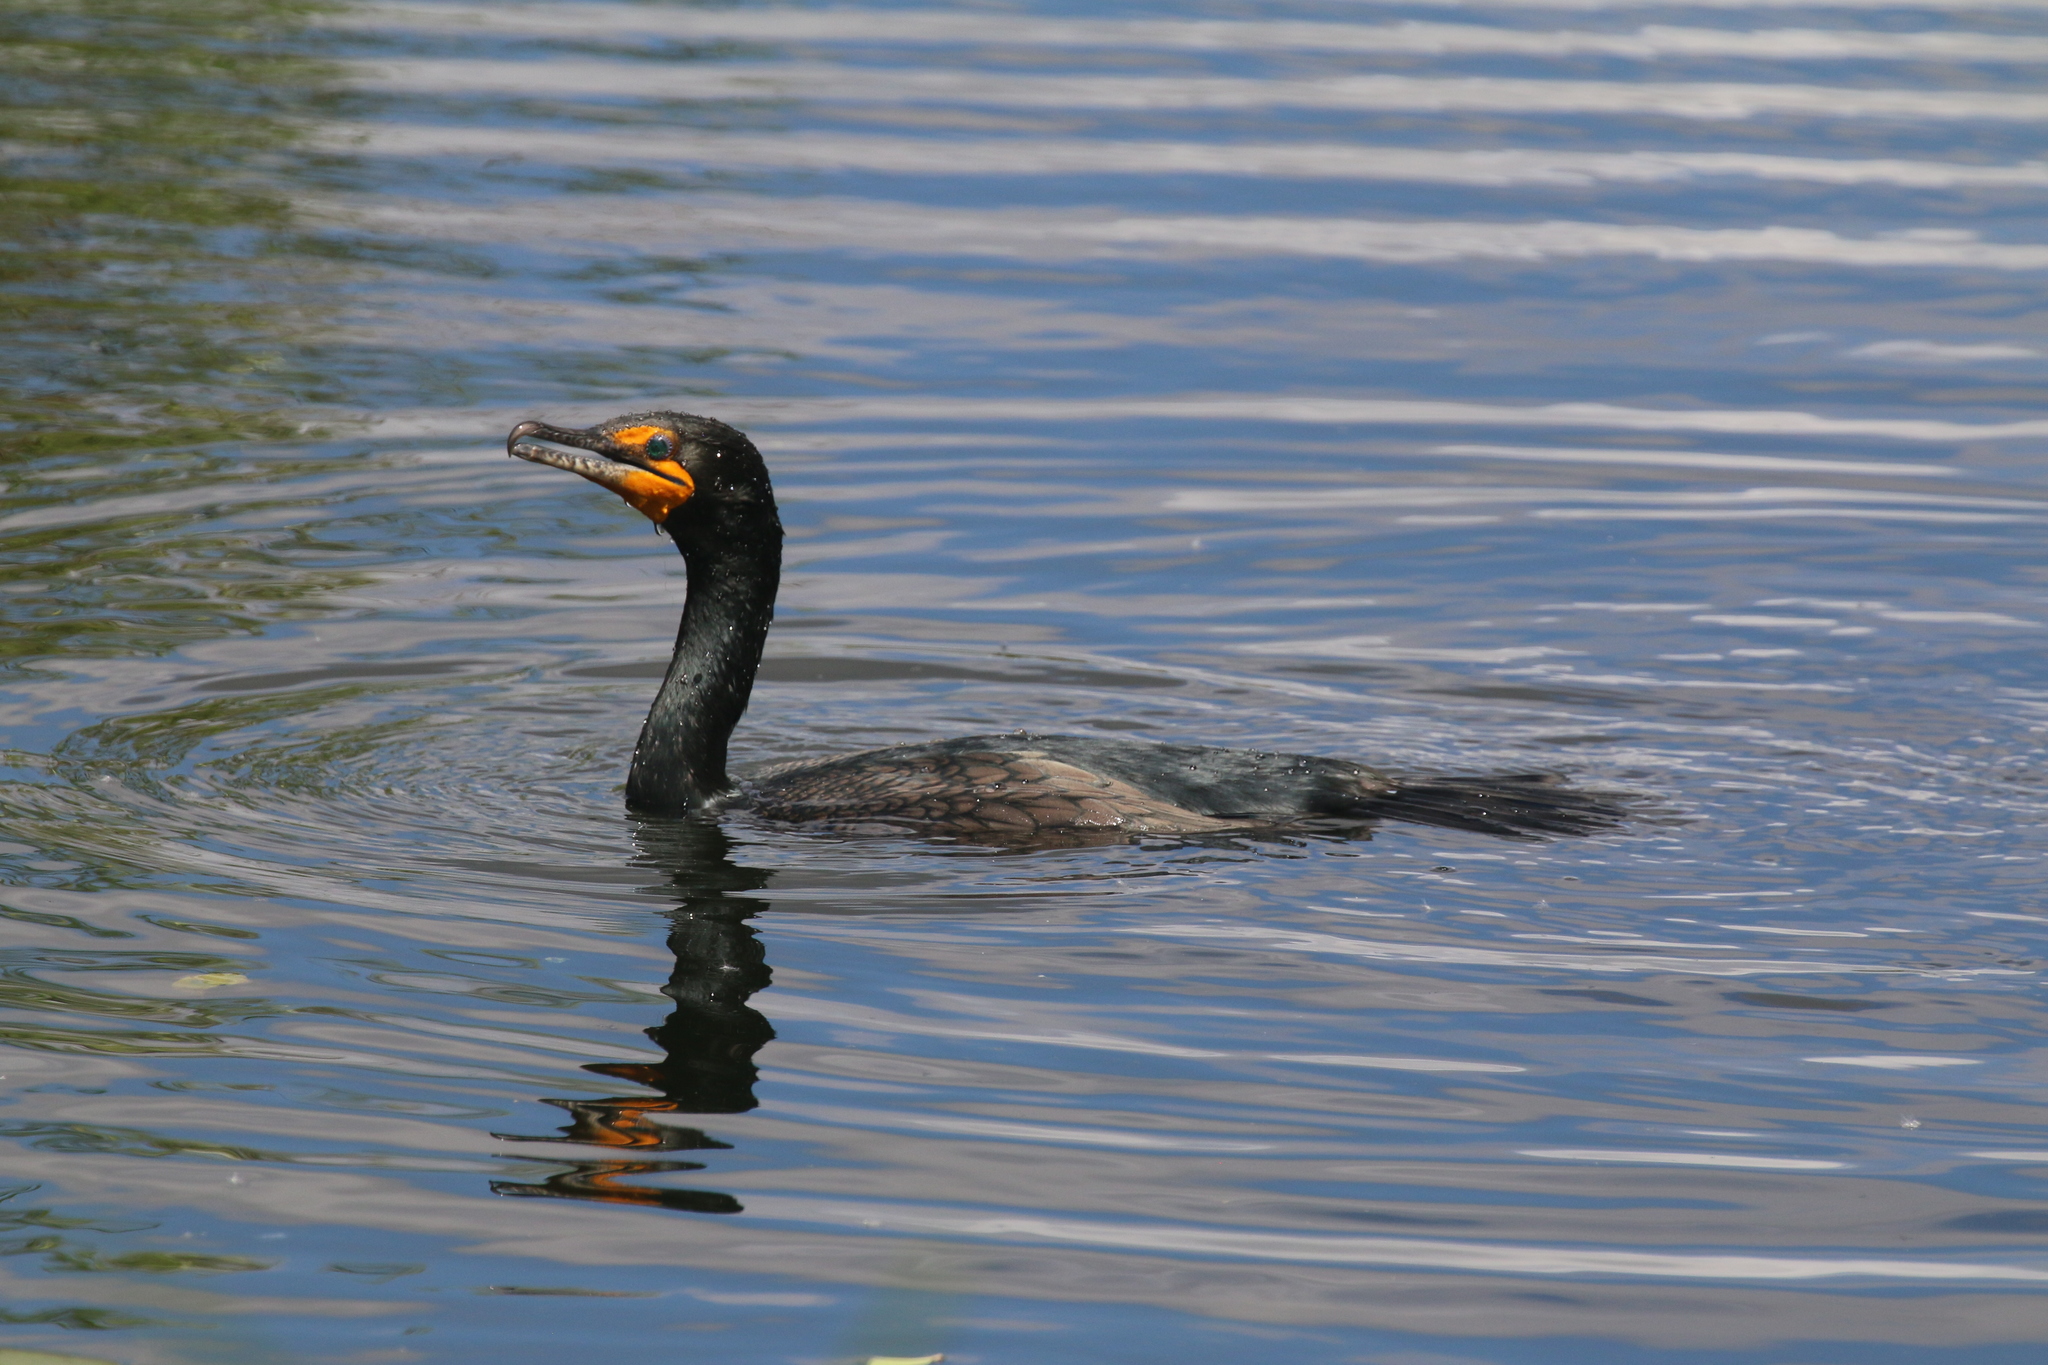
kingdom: Animalia
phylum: Chordata
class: Aves
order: Suliformes
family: Phalacrocoracidae
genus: Phalacrocorax
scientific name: Phalacrocorax auritus
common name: Double-crested cormorant
